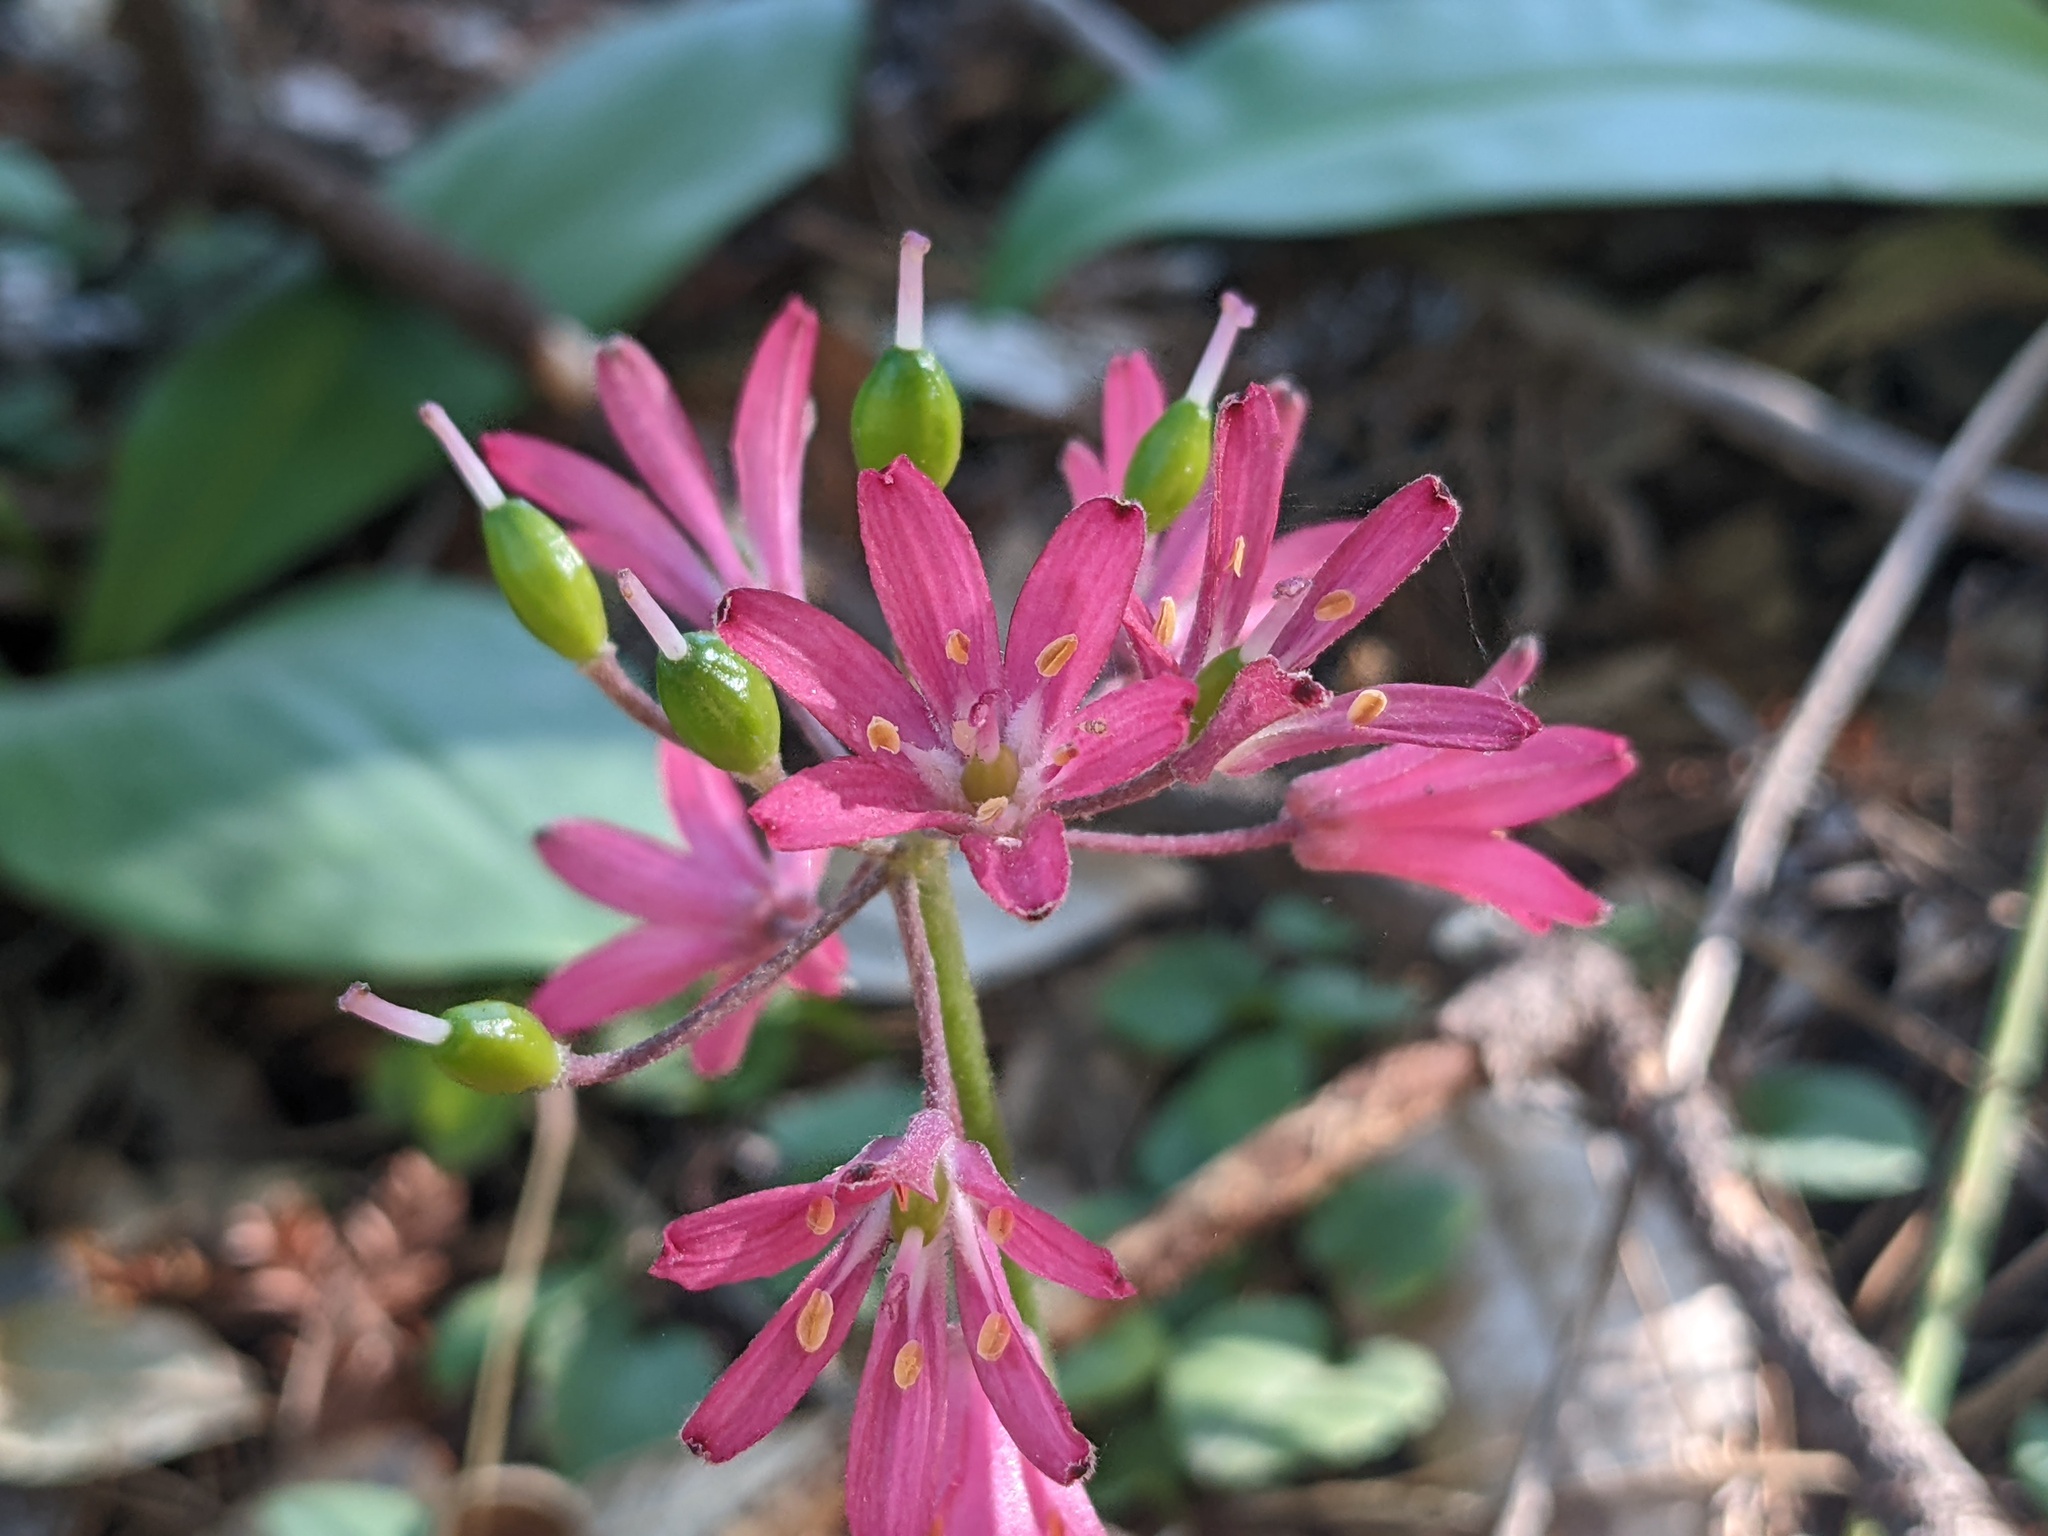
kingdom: Plantae
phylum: Tracheophyta
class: Liliopsida
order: Liliales
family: Liliaceae
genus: Clintonia
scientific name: Clintonia andrewsiana
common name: Red clintonia
